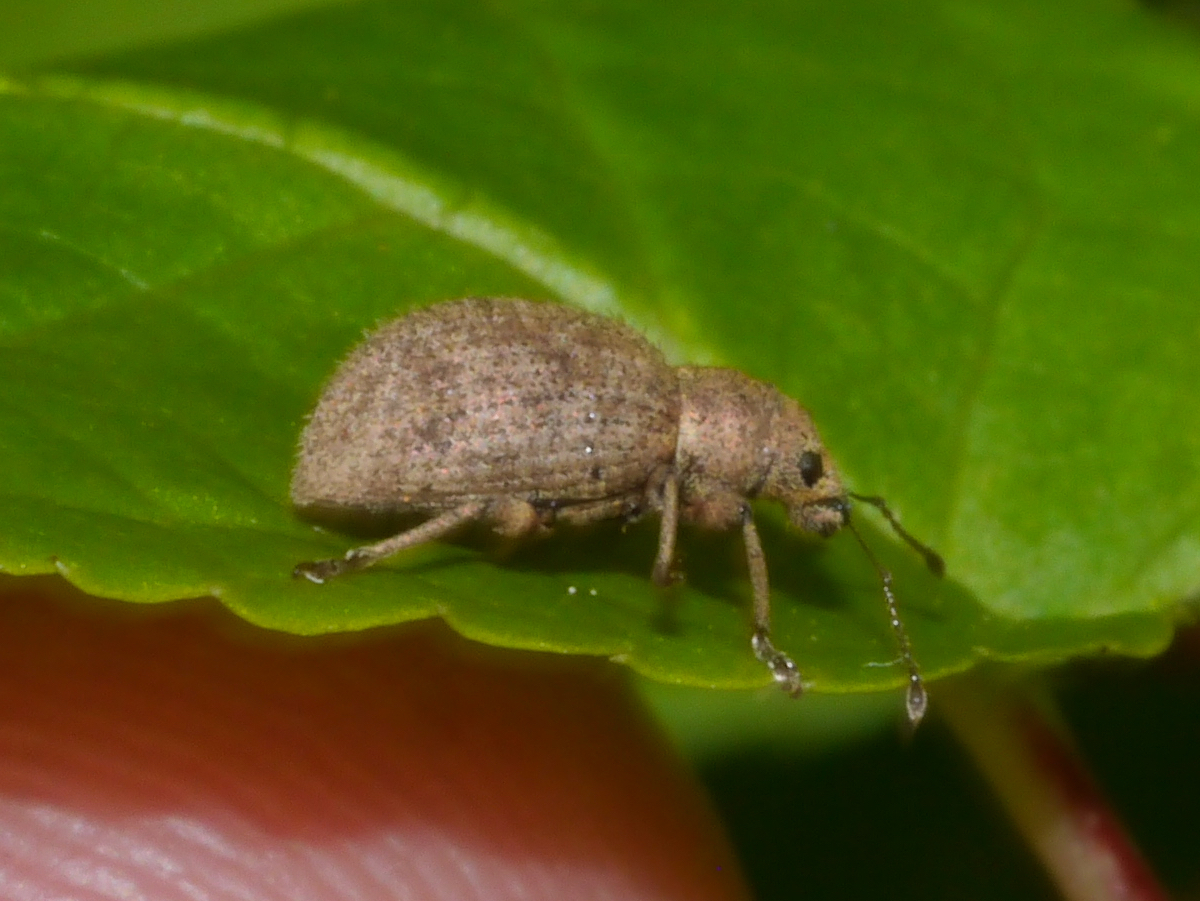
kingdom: Animalia
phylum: Arthropoda
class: Insecta
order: Coleoptera
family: Curculionidae
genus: Sciaphilus
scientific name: Sciaphilus asperatus
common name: Weevil
